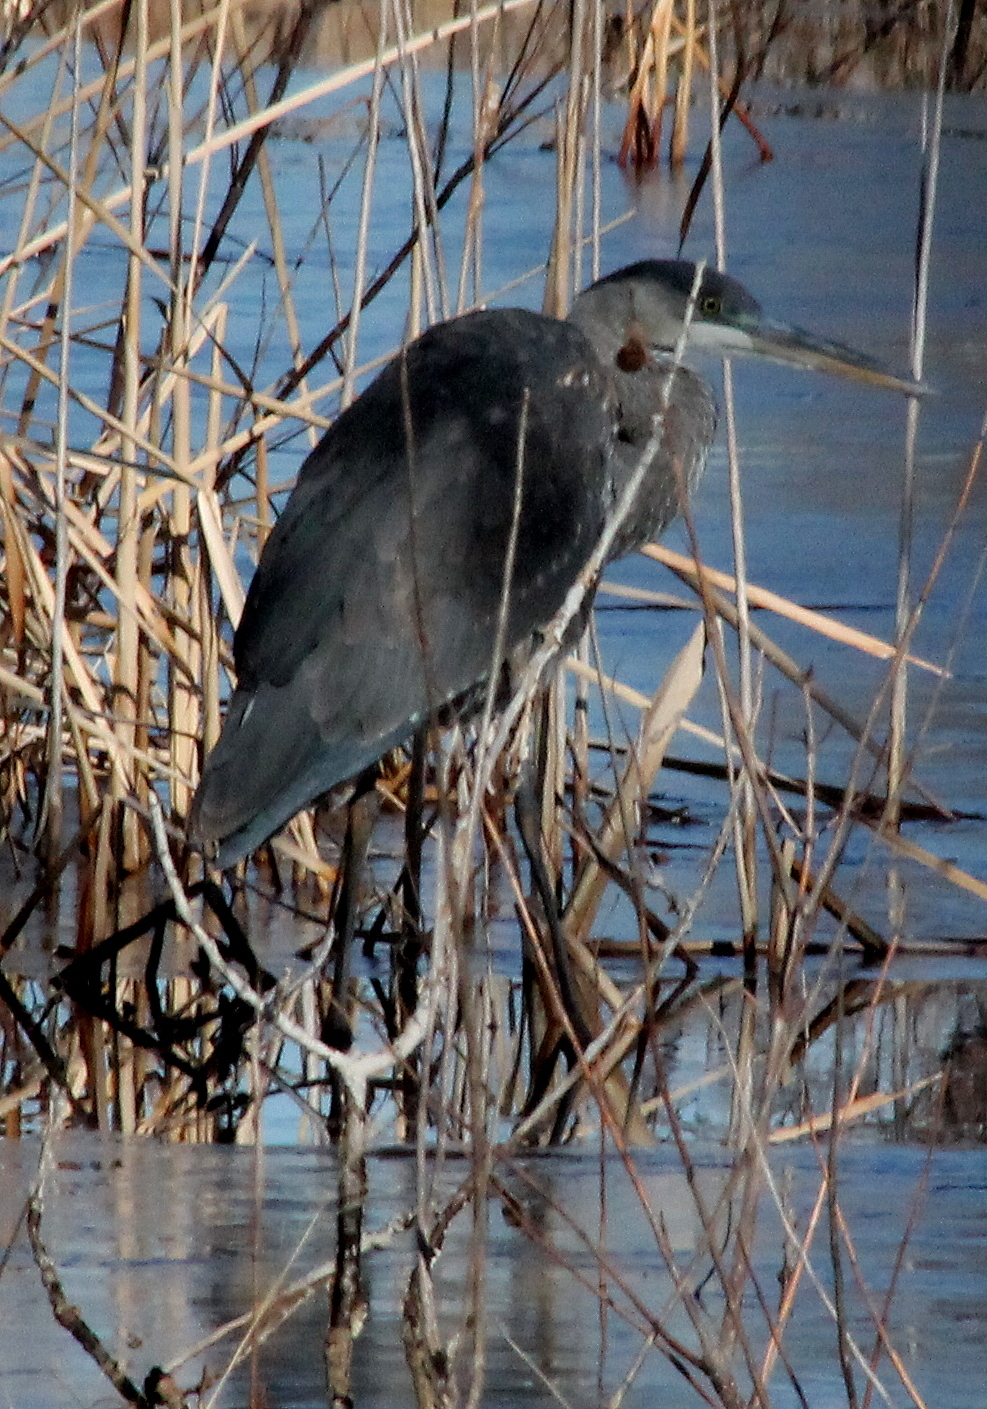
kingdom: Animalia
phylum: Chordata
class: Aves
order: Pelecaniformes
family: Ardeidae
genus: Ardea
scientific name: Ardea herodias
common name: Great blue heron
